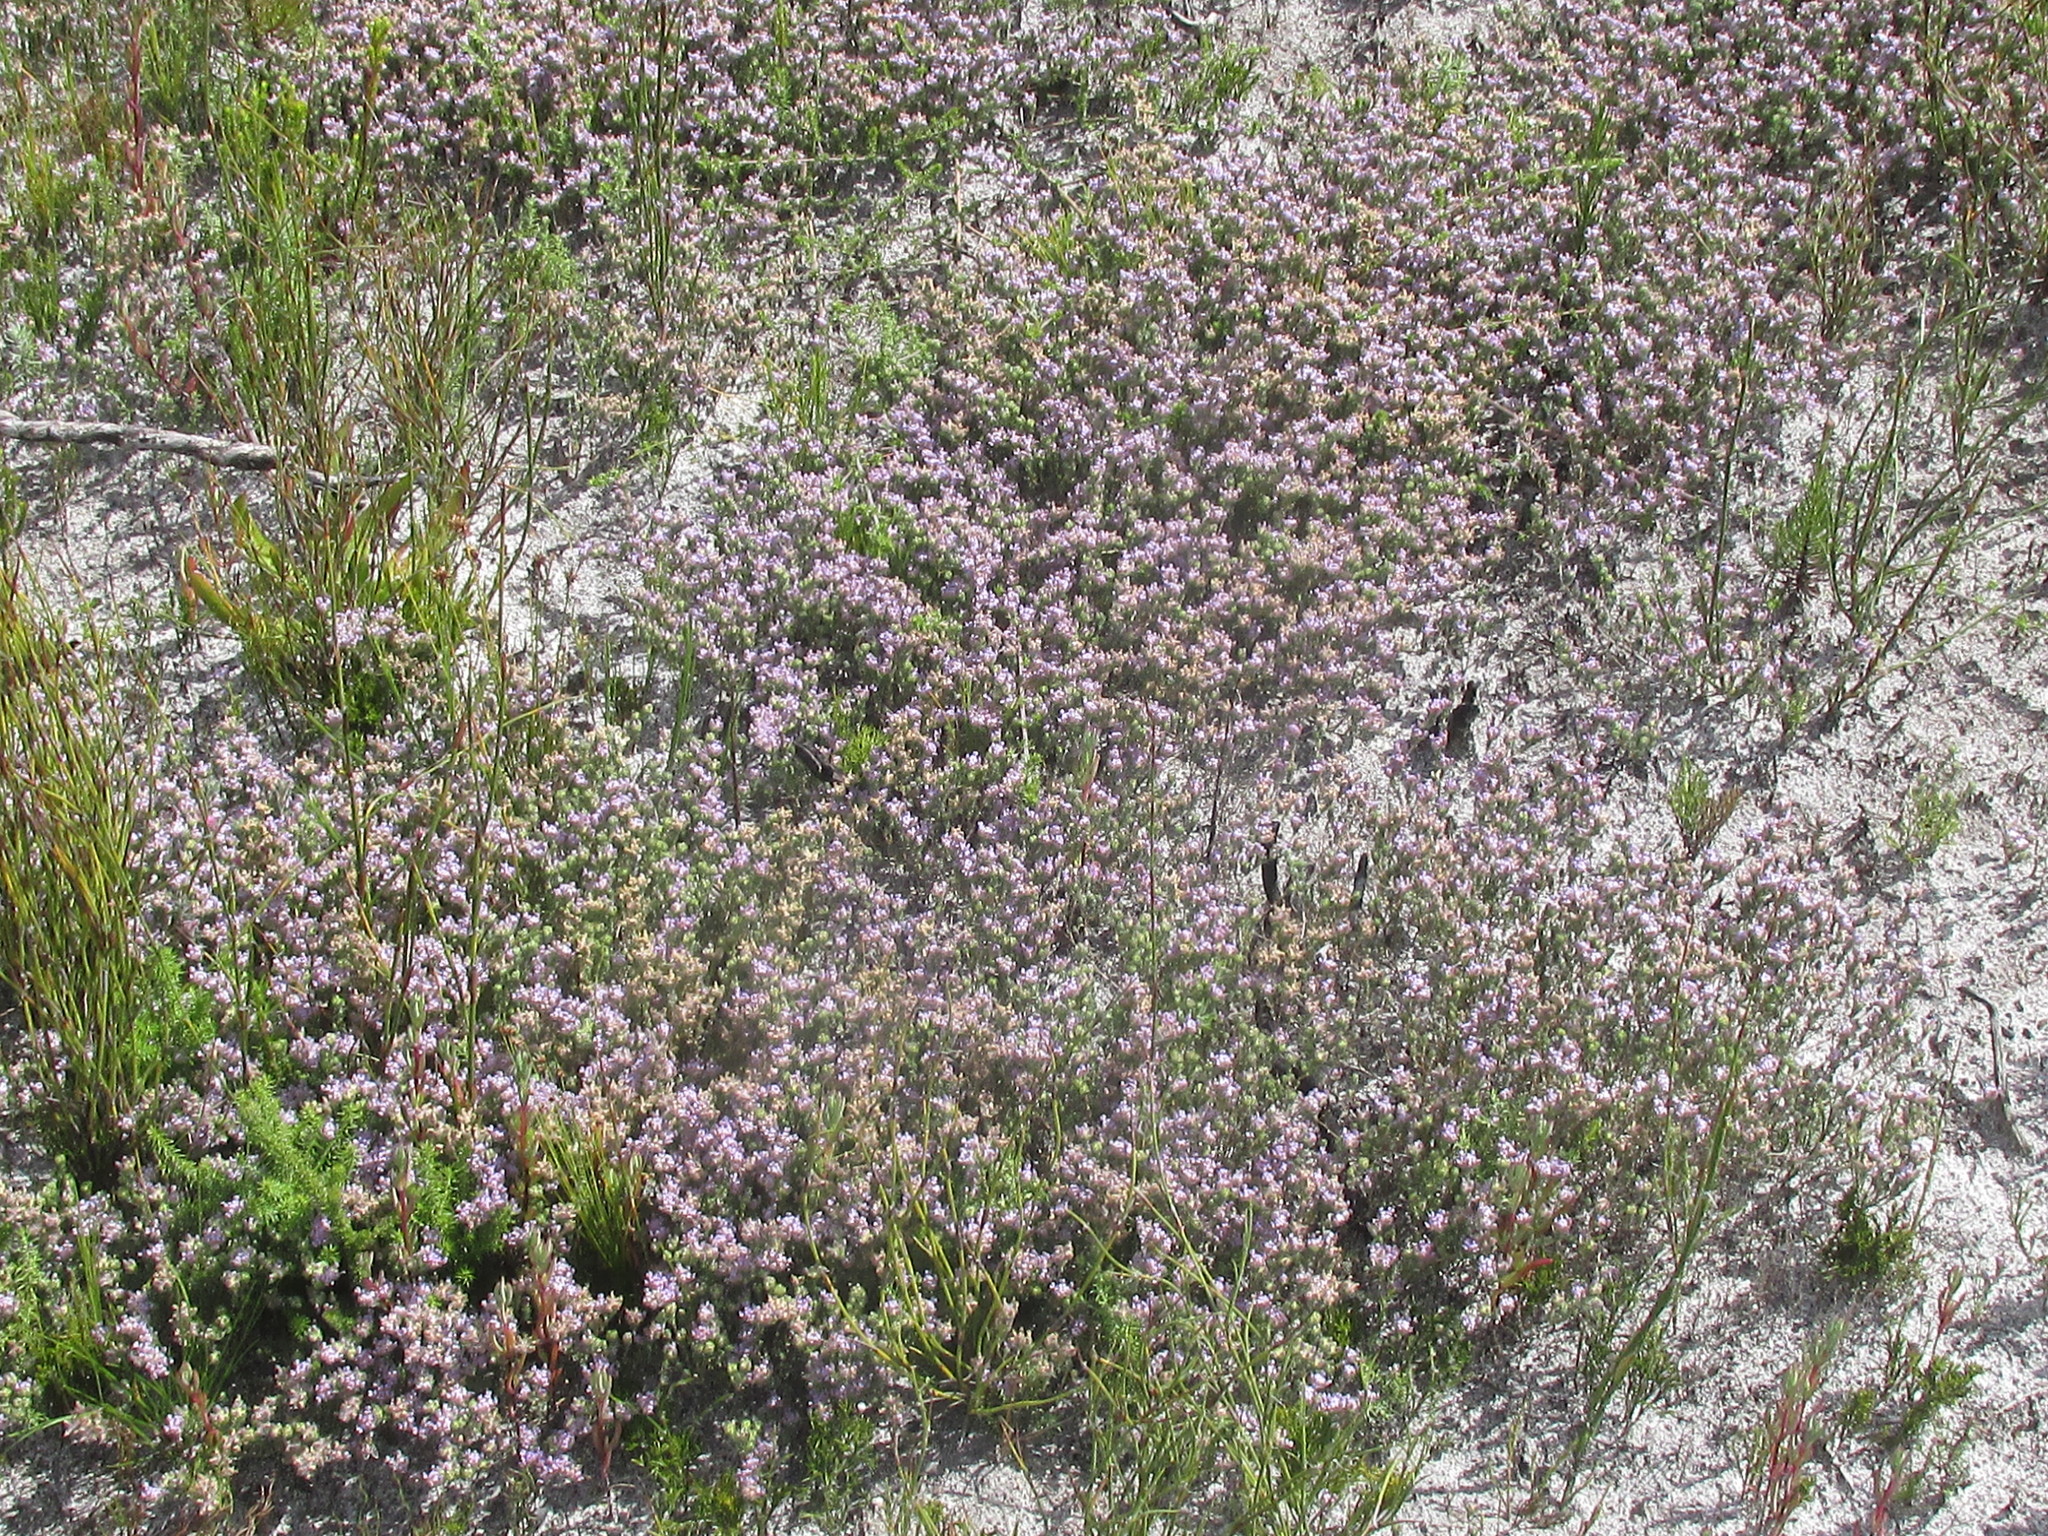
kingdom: Plantae
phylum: Tracheophyta
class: Magnoliopsida
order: Fabales
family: Fabaceae
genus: Aspalathus
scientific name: Aspalathus argyrella
